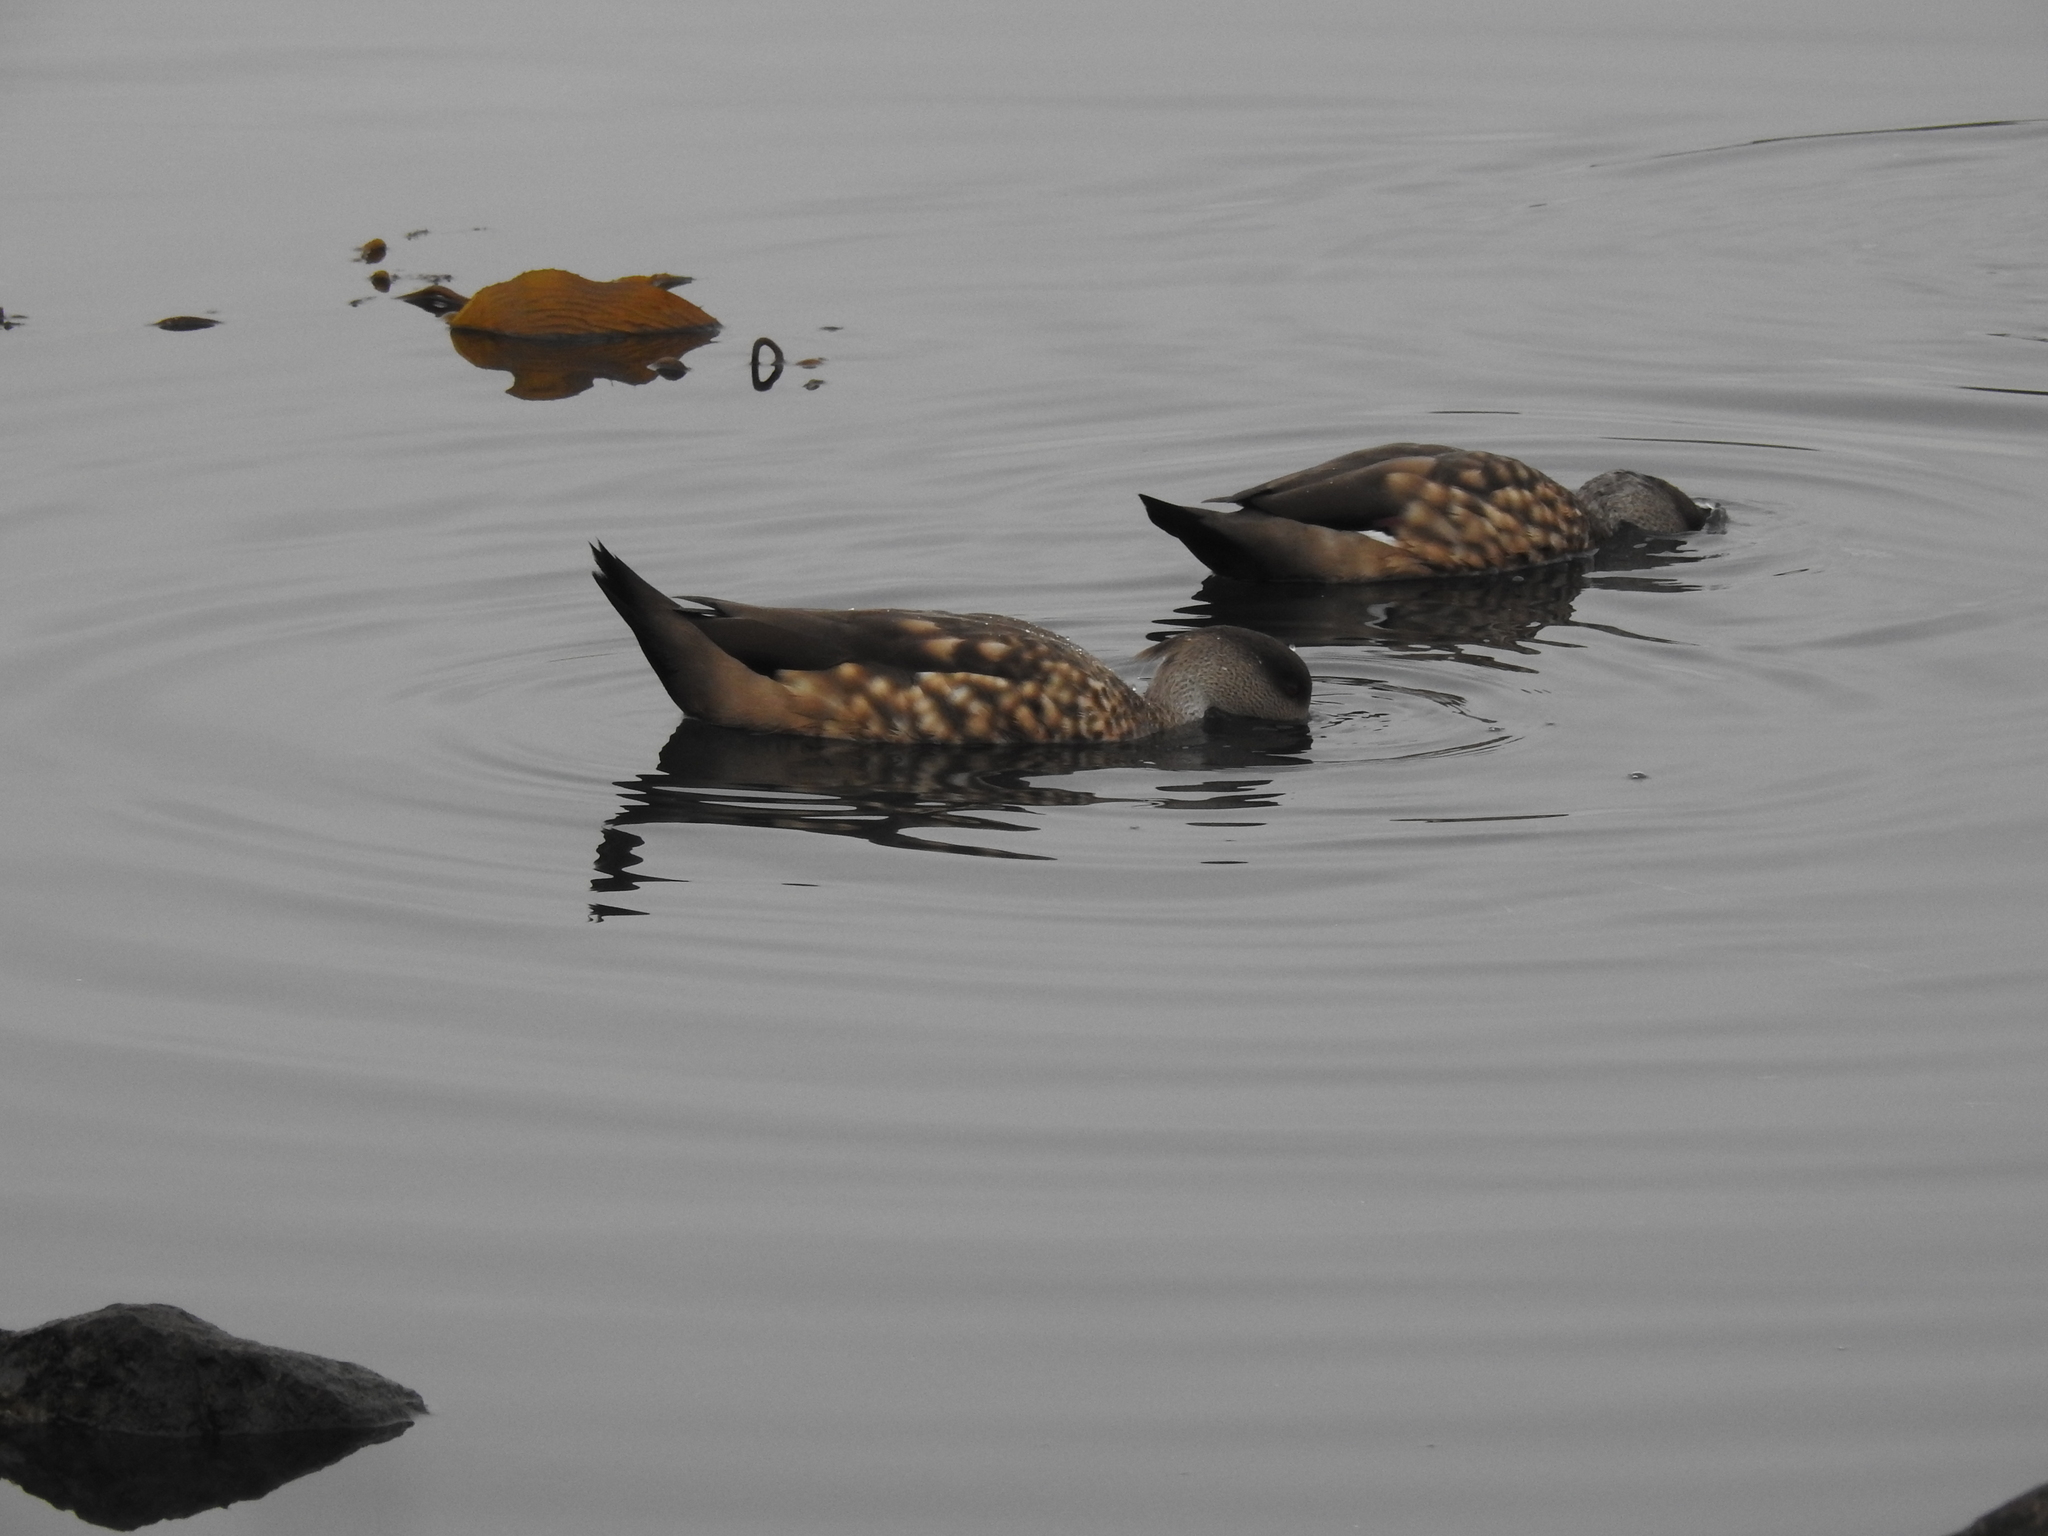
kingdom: Animalia
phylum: Chordata
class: Aves
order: Anseriformes
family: Anatidae
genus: Lophonetta
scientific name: Lophonetta specularioides
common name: Crested duck
